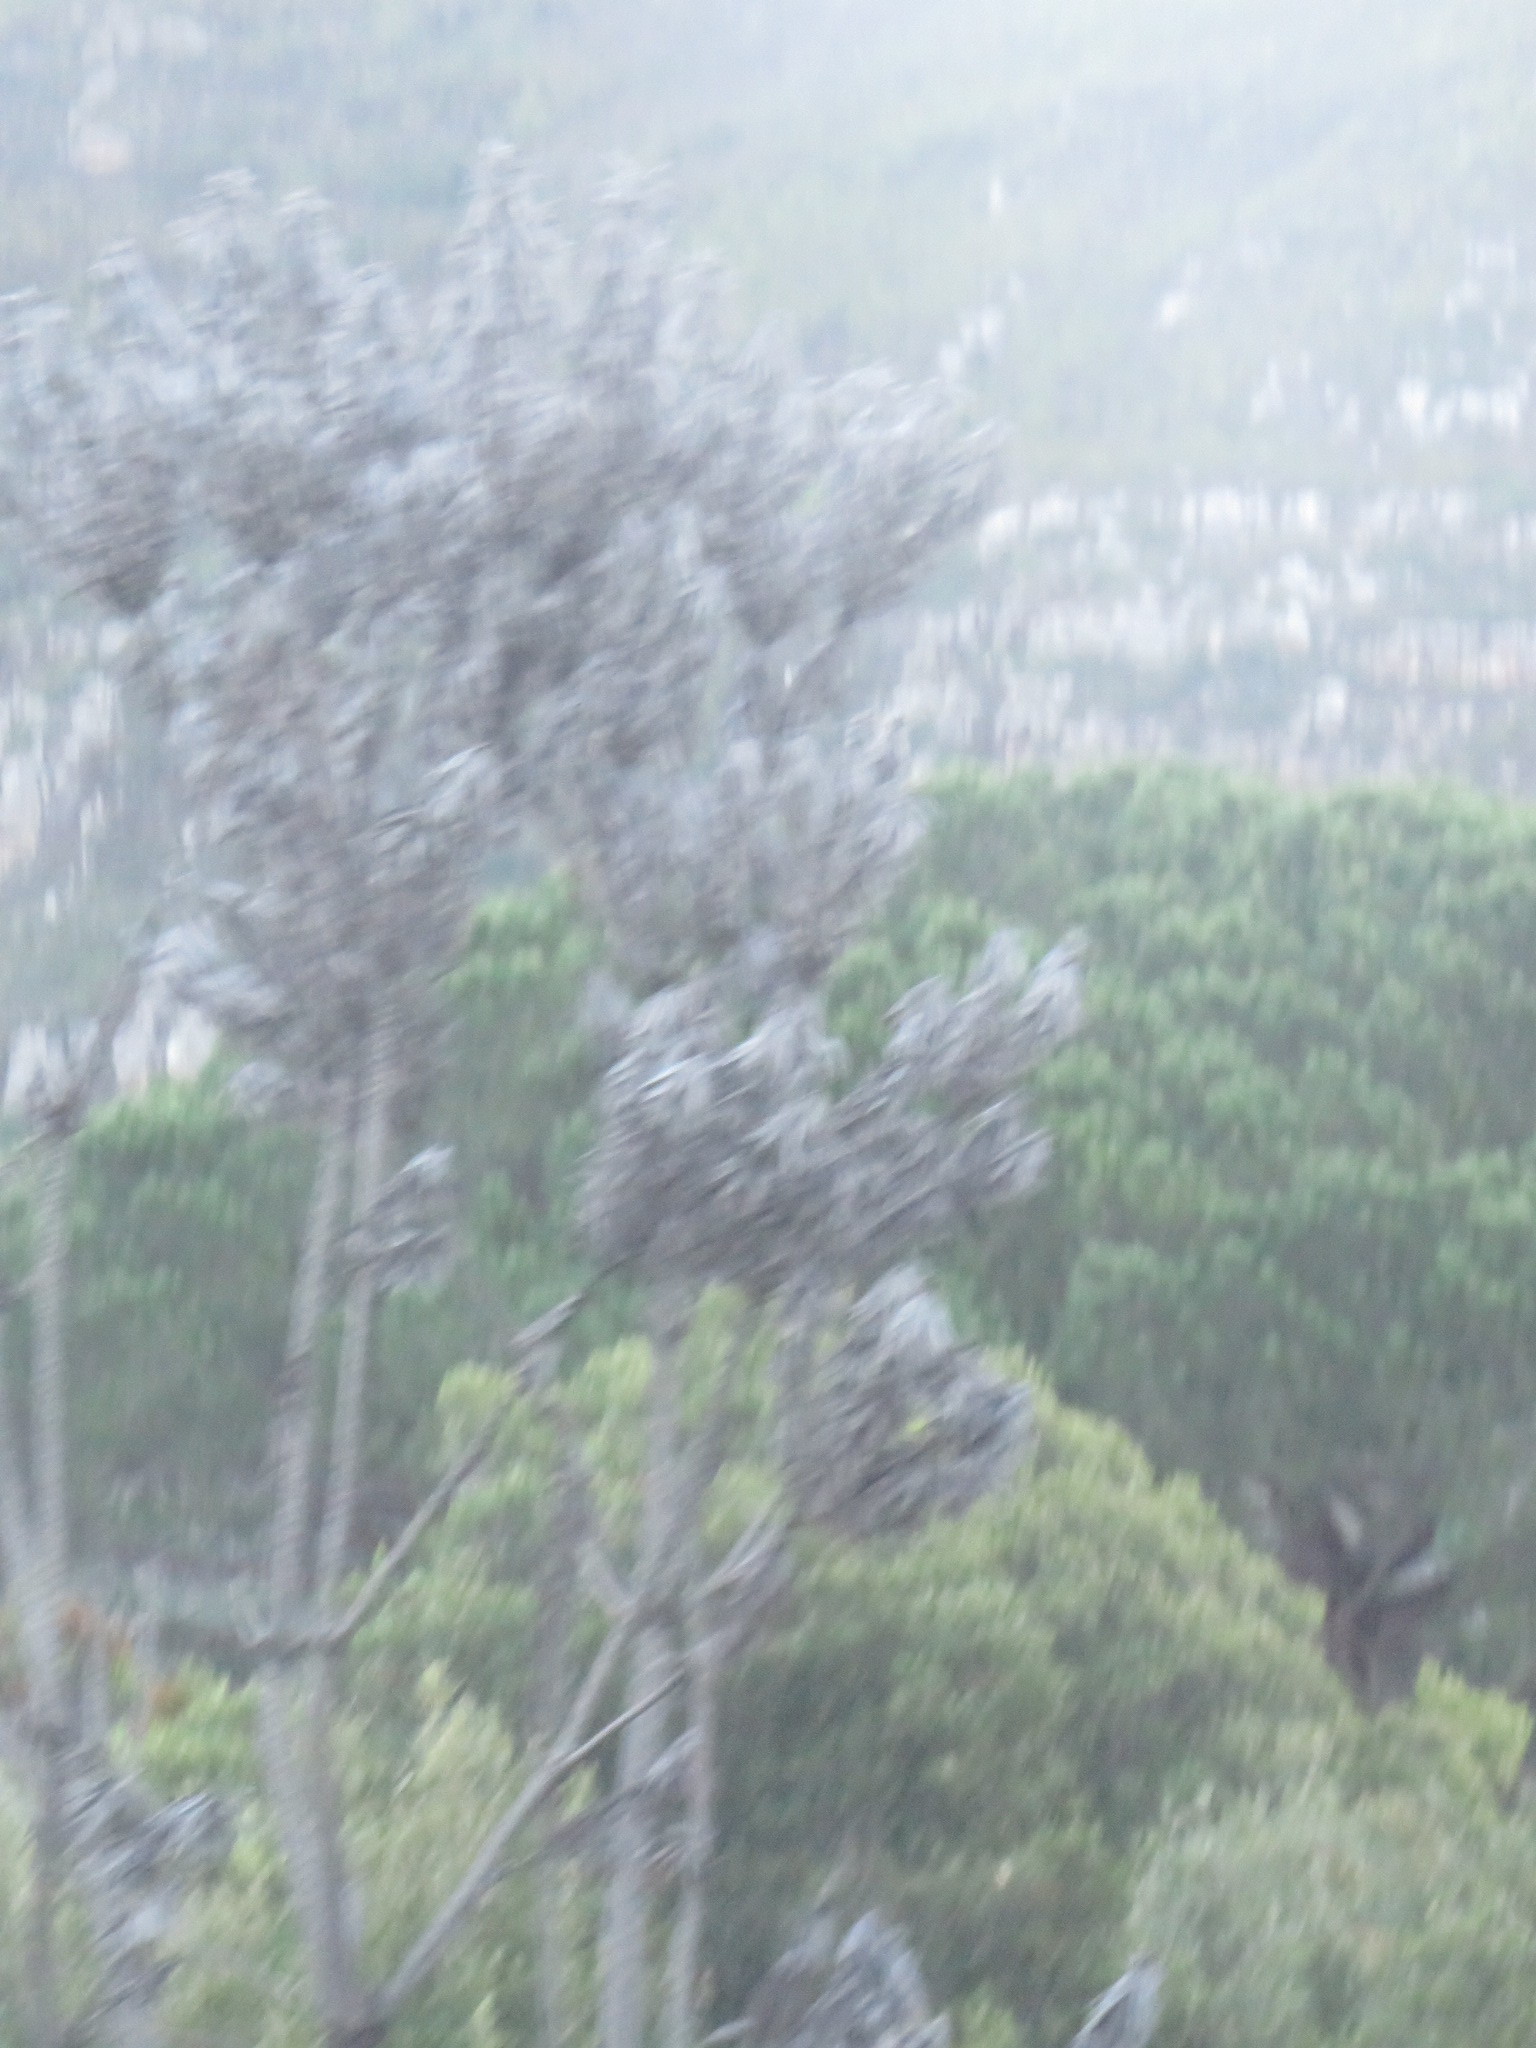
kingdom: Plantae
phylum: Tracheophyta
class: Magnoliopsida
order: Proteales
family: Proteaceae
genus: Leucadendron
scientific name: Leucadendron argenteum
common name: Cape silver tree
